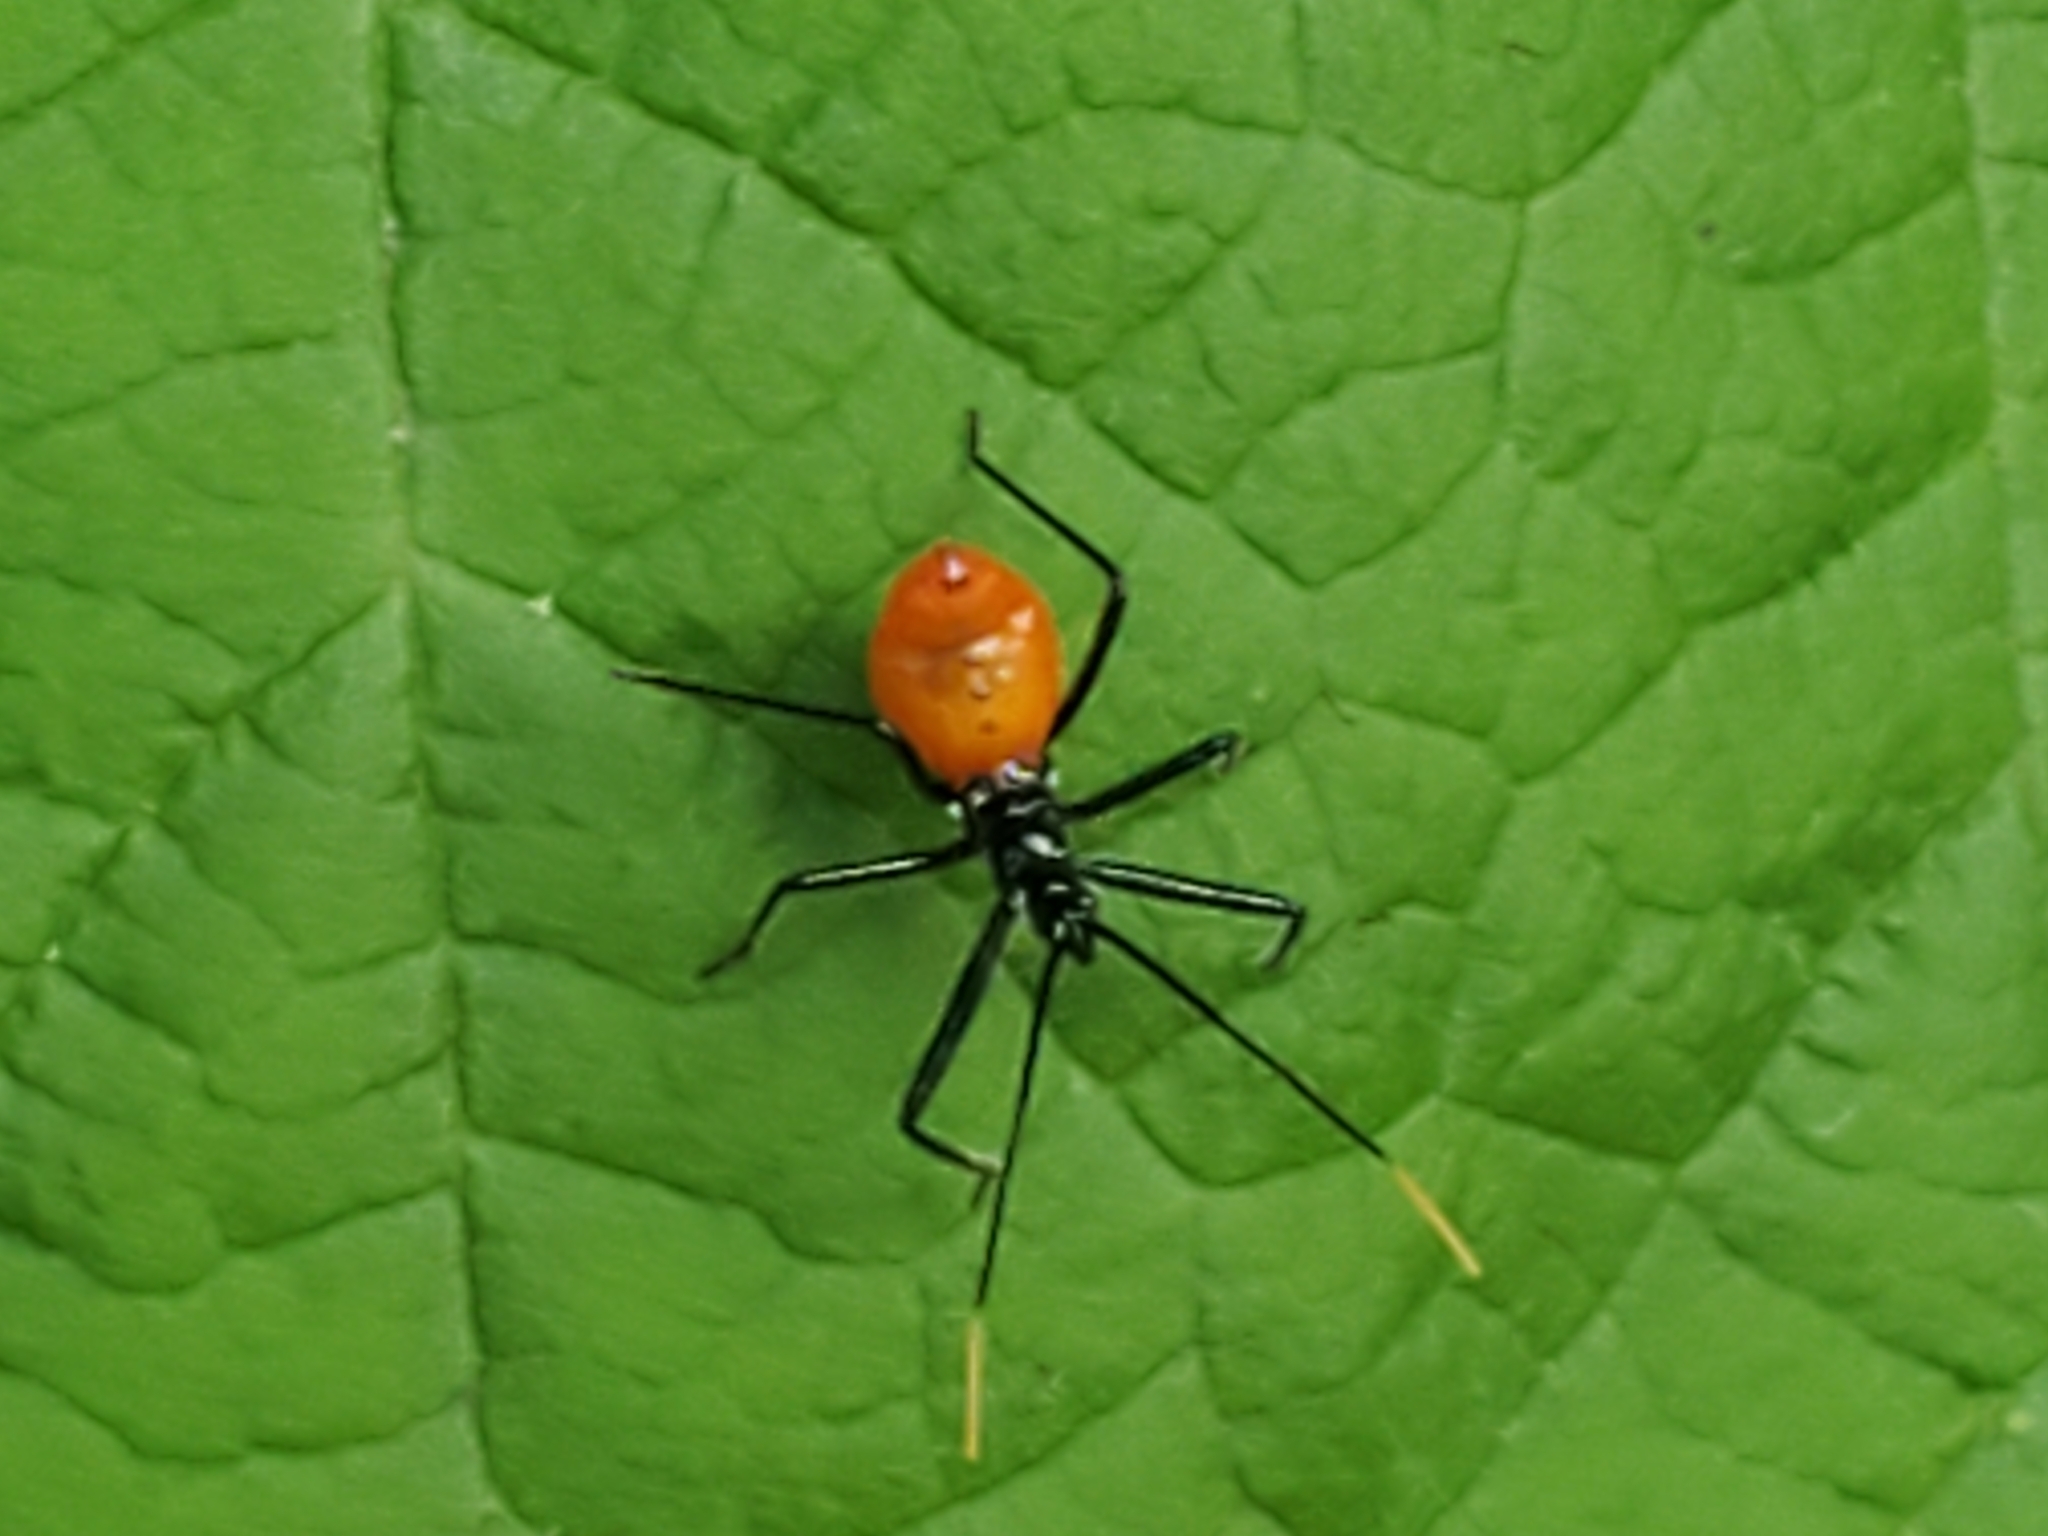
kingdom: Animalia
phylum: Arthropoda
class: Insecta
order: Hemiptera
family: Reduviidae
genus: Arilus
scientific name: Arilus cristatus
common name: North american wheel bug
